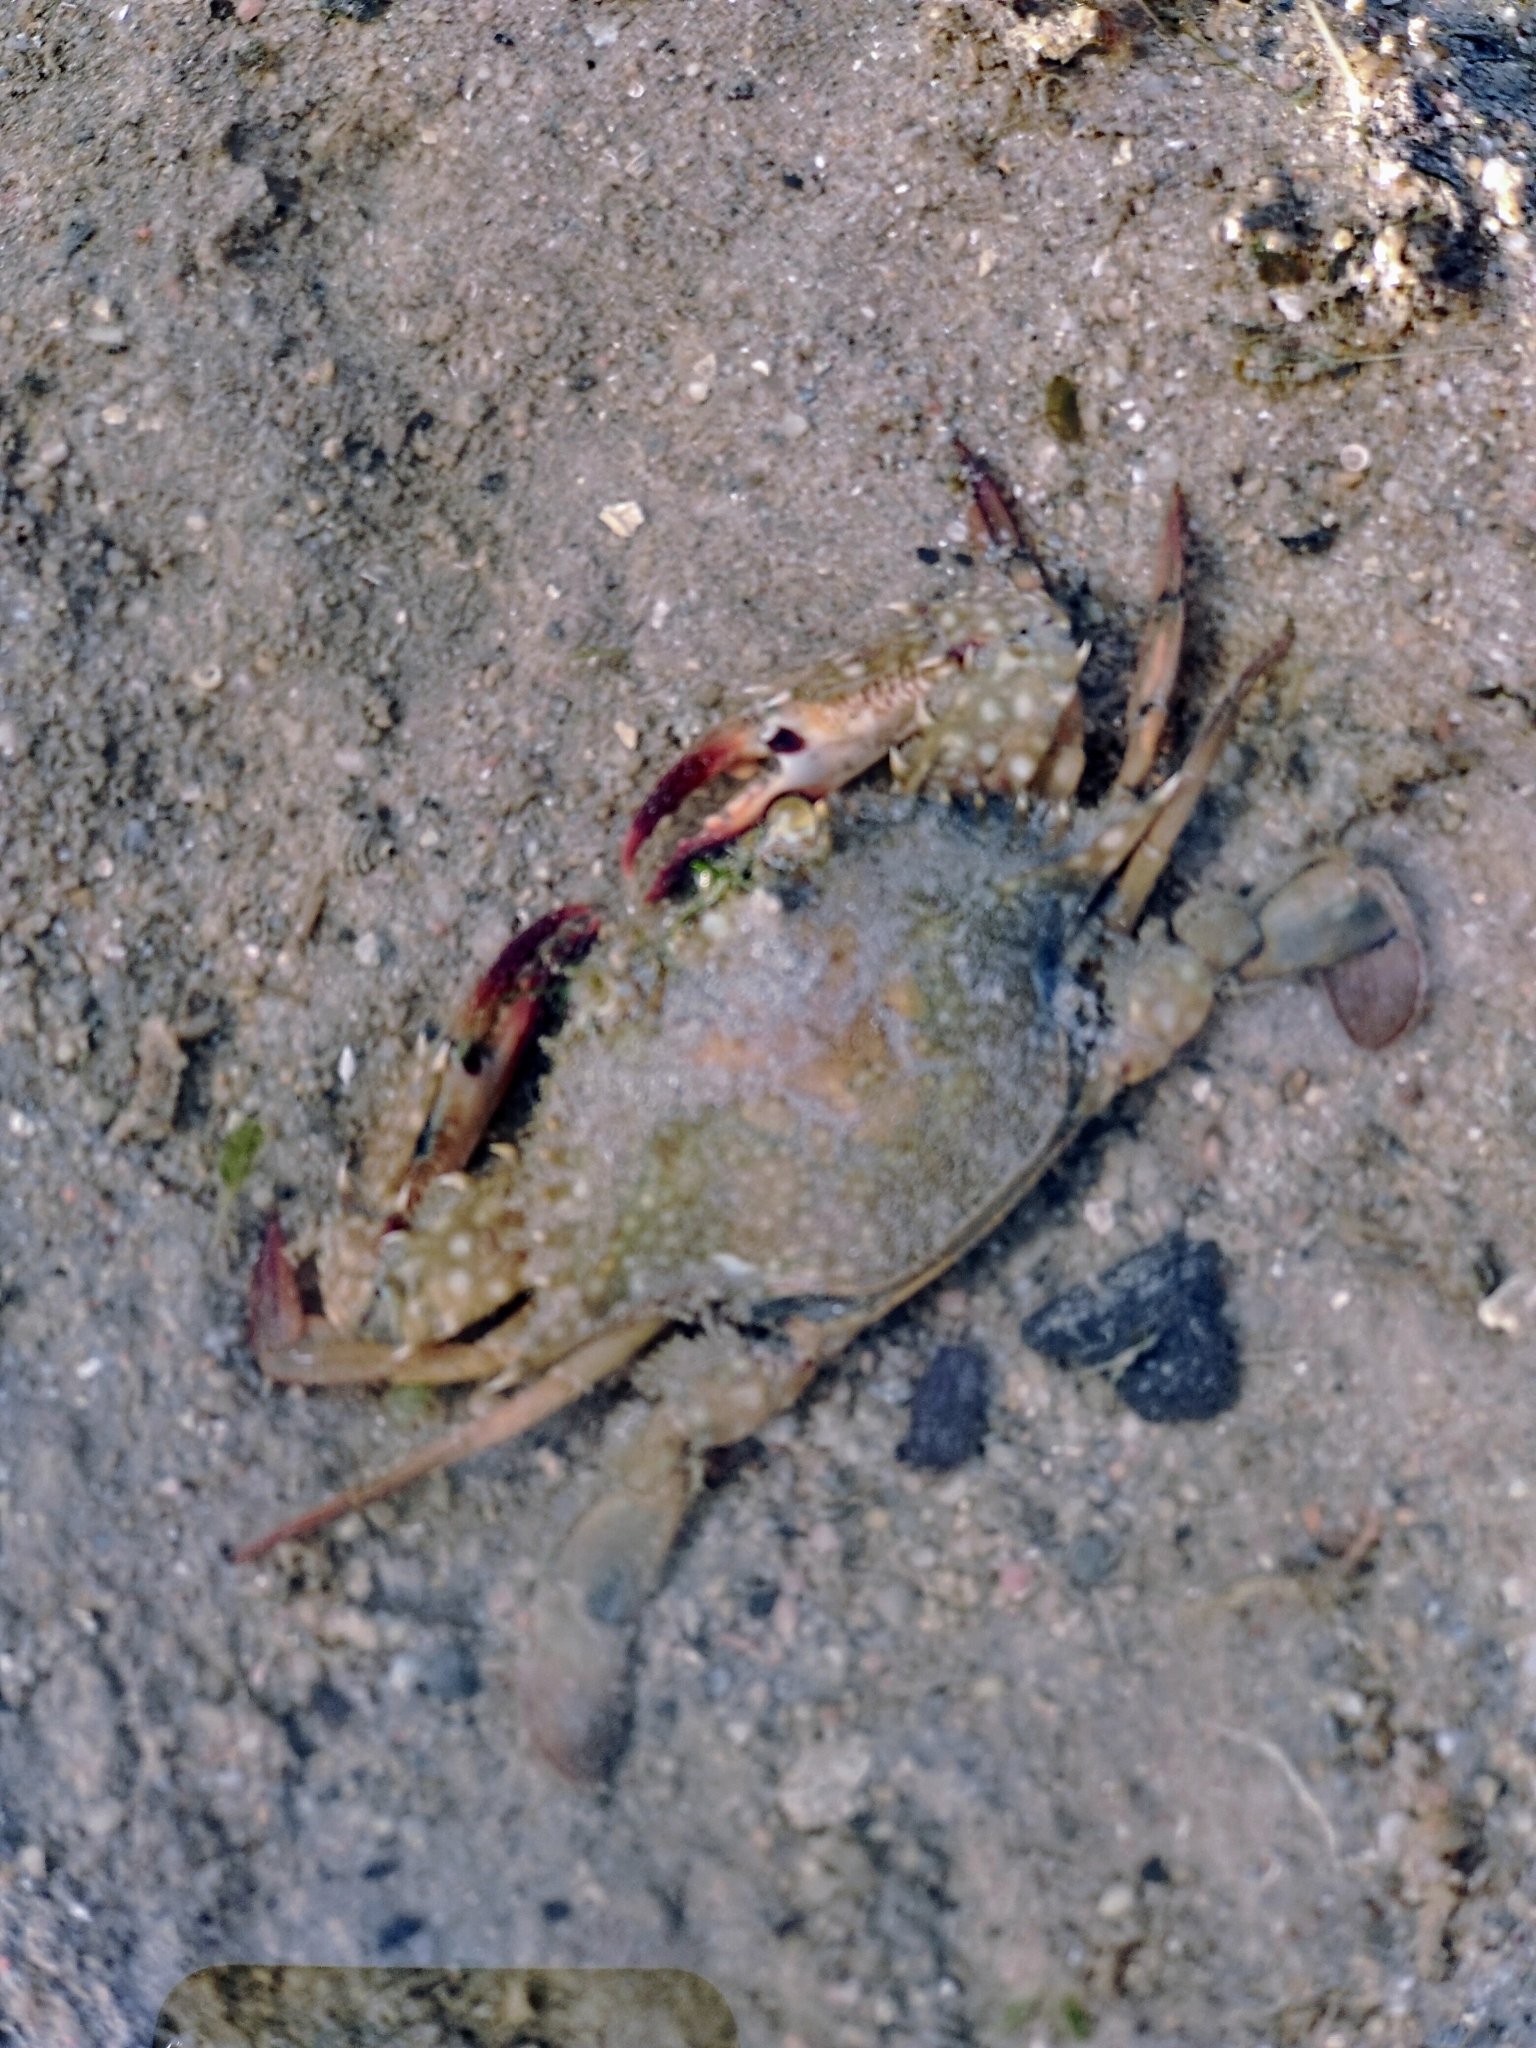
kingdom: Animalia
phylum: Arthropoda
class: Malacostraca
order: Decapoda
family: Portunidae
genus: Portunus
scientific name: Portunus pelagicus
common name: Blue swimming crab
